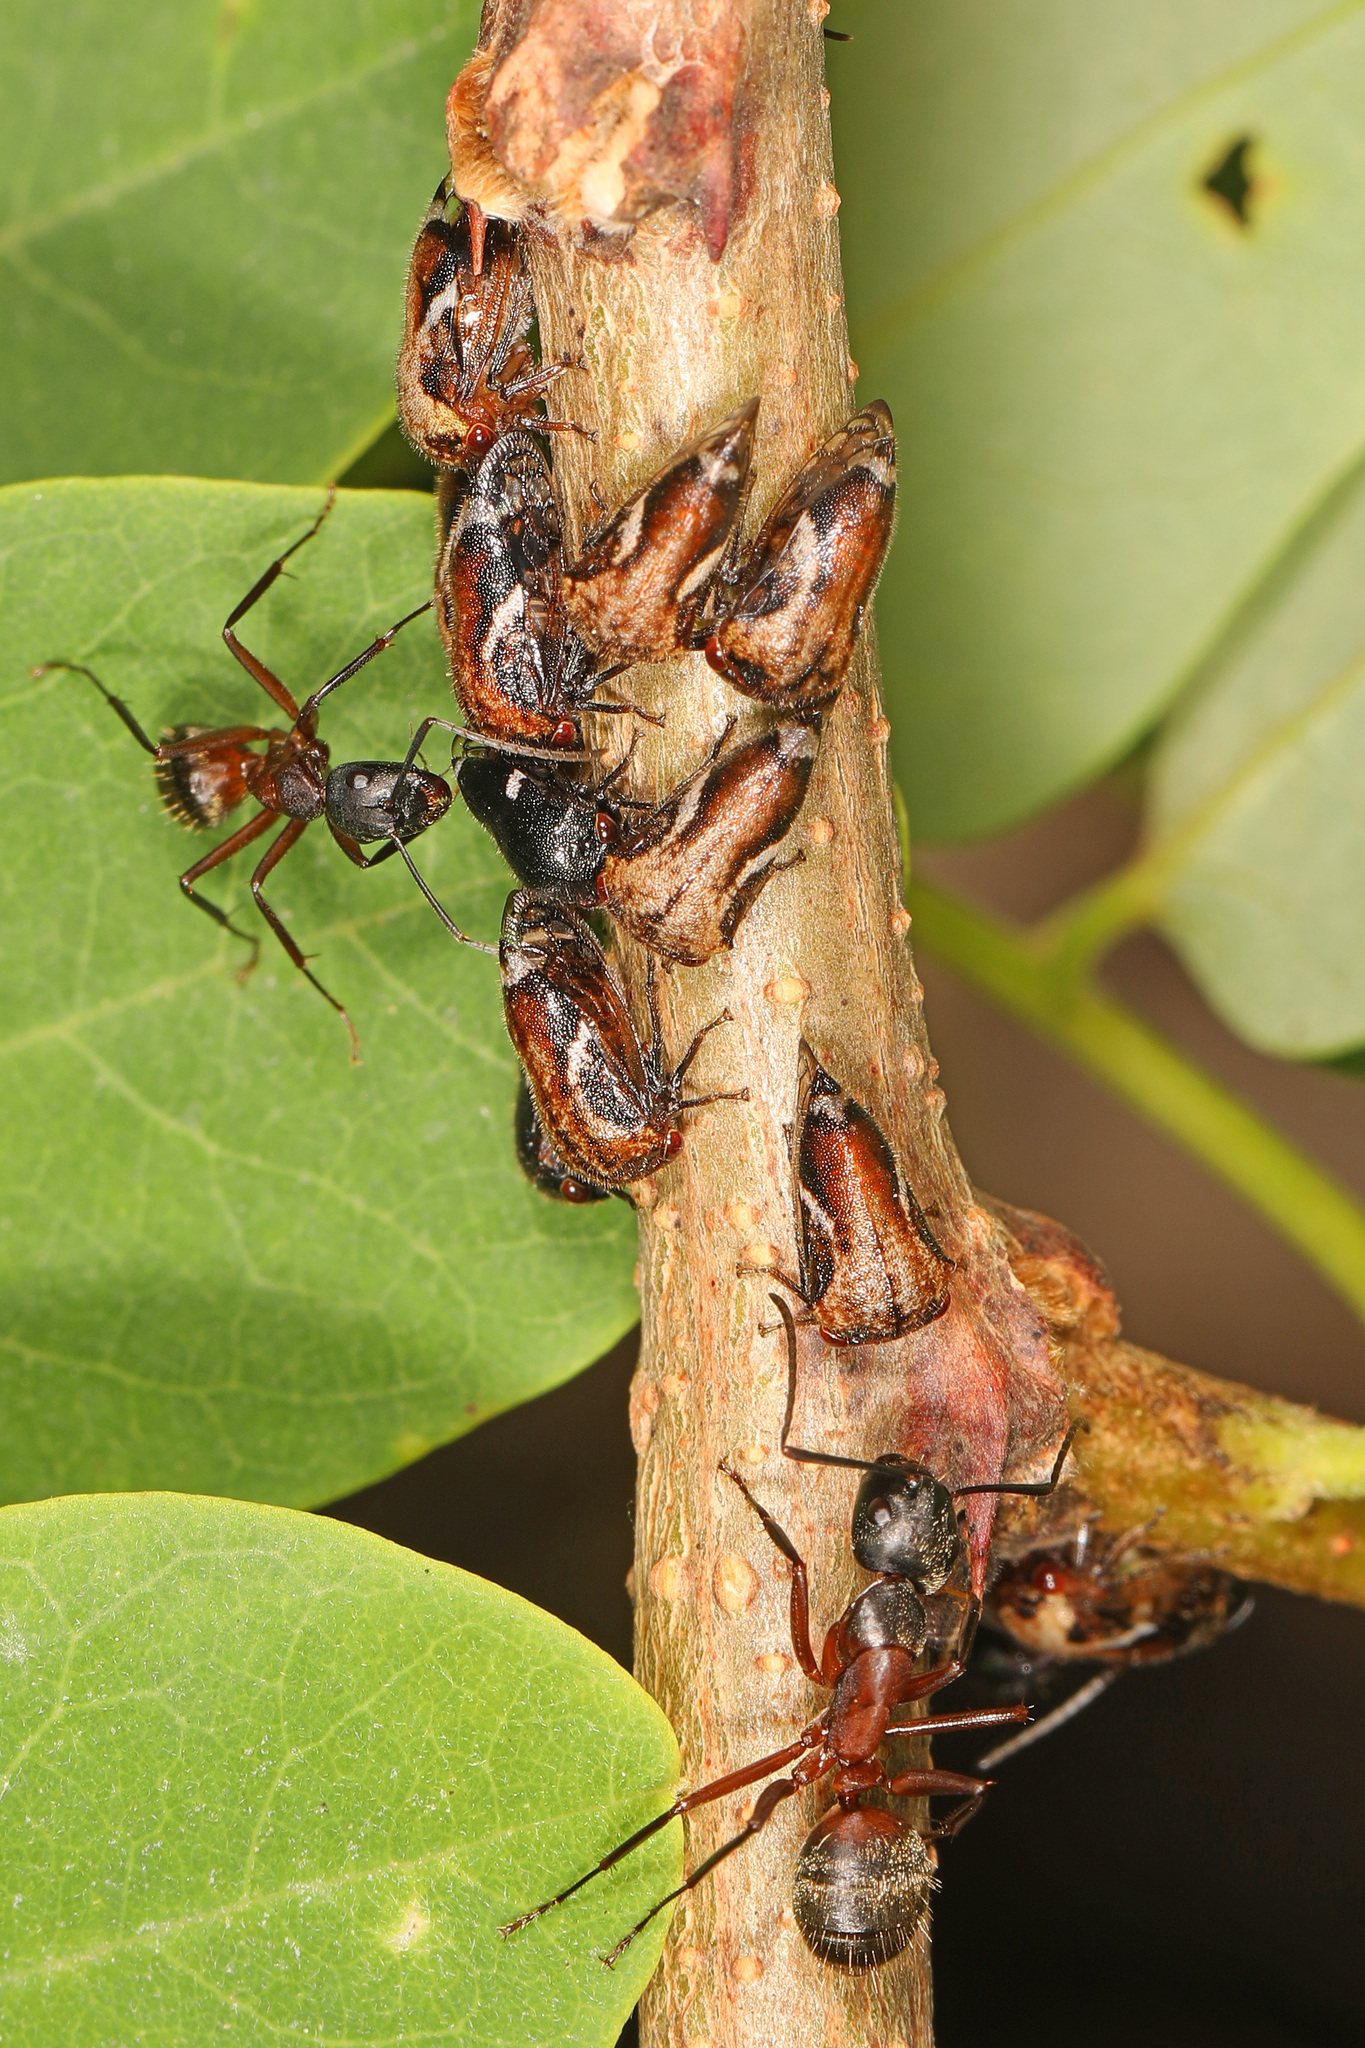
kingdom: Animalia
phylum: Arthropoda
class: Insecta
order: Hymenoptera
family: Formicidae
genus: Camponotus
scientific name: Camponotus chromaiodes
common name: Red carpenter ant
